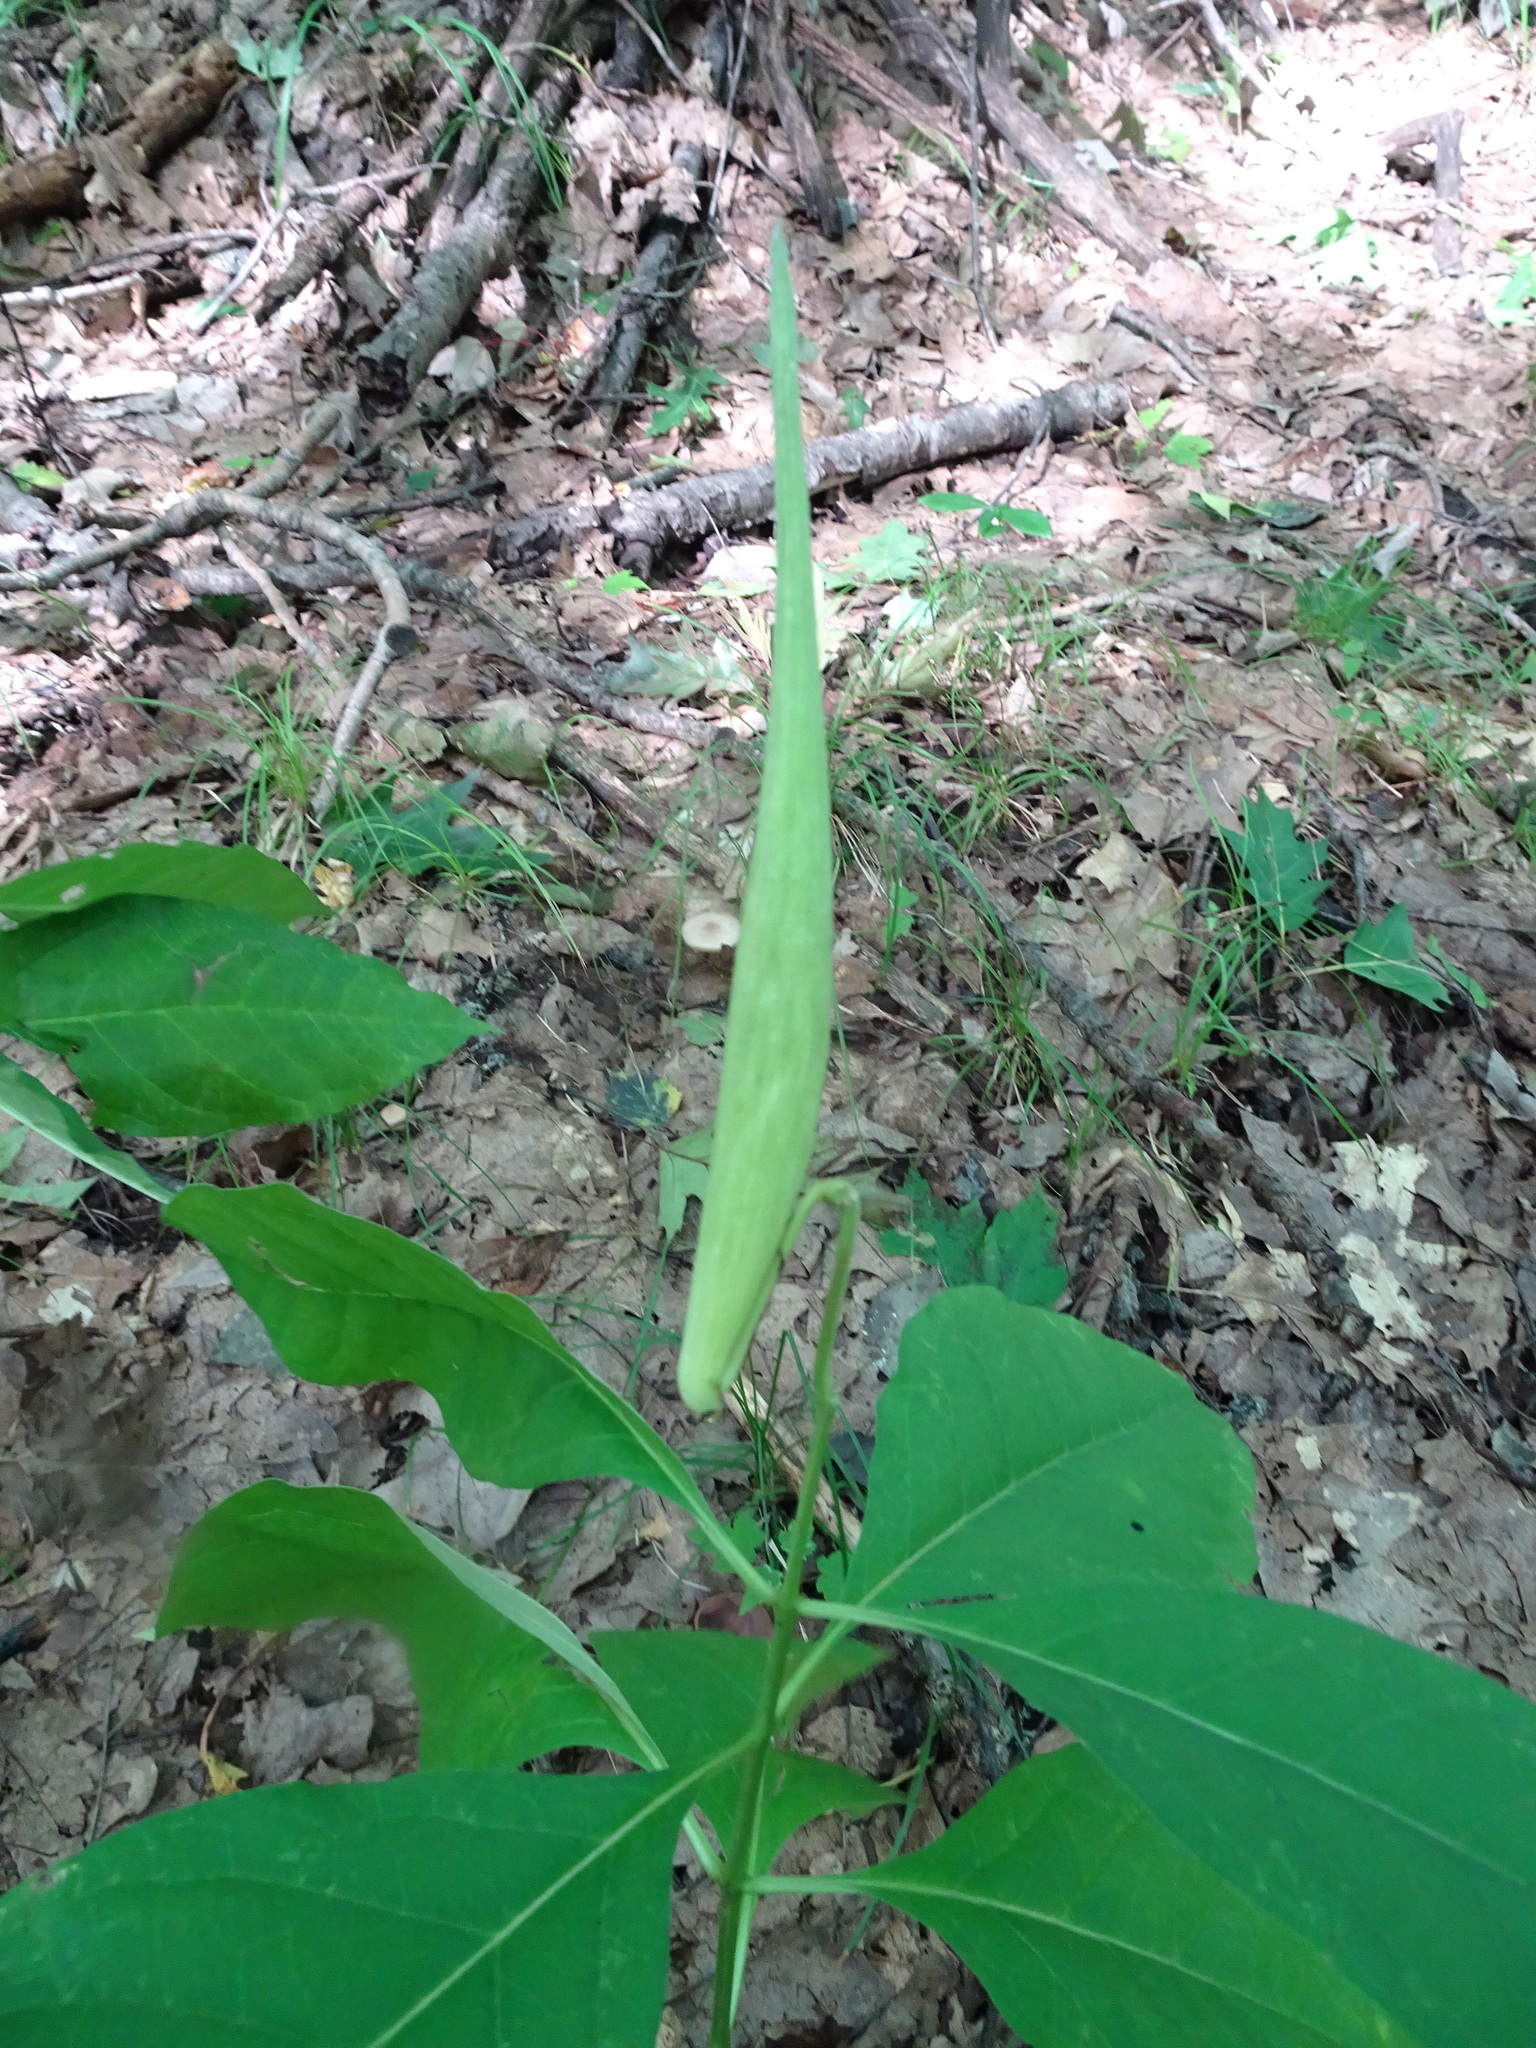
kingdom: Plantae
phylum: Tracheophyta
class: Magnoliopsida
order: Gentianales
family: Apocynaceae
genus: Asclepias
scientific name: Asclepias exaltata
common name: Poke milkweed
